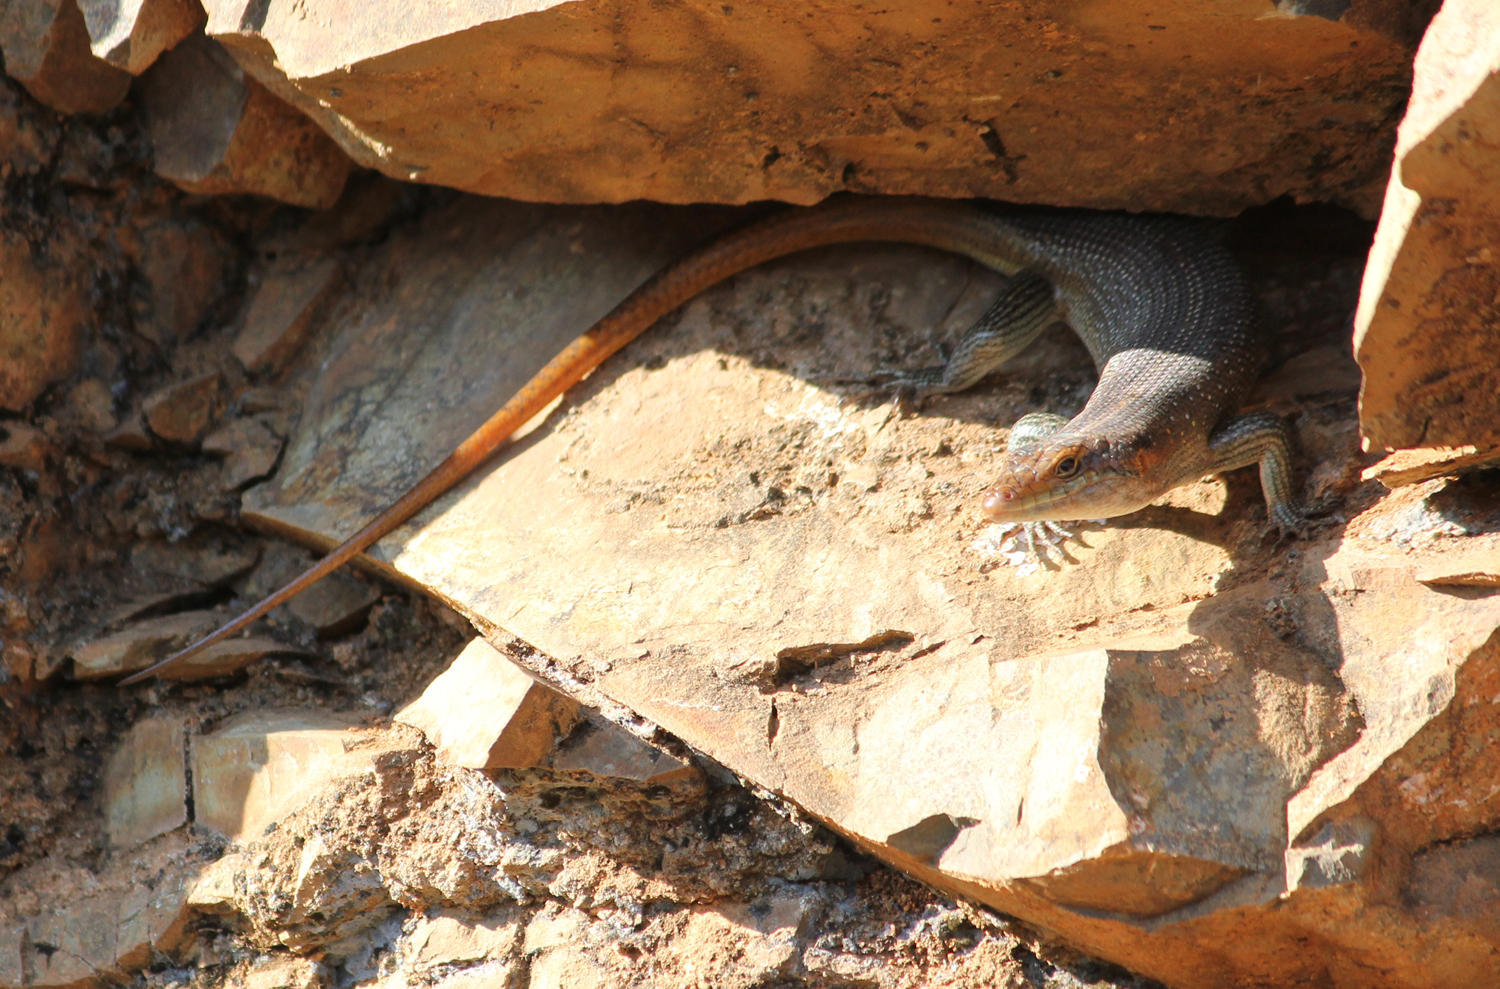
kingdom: Animalia
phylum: Chordata
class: Squamata
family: Scincidae
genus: Trachylepis
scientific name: Trachylepis margaritifera
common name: Rainbow skink
